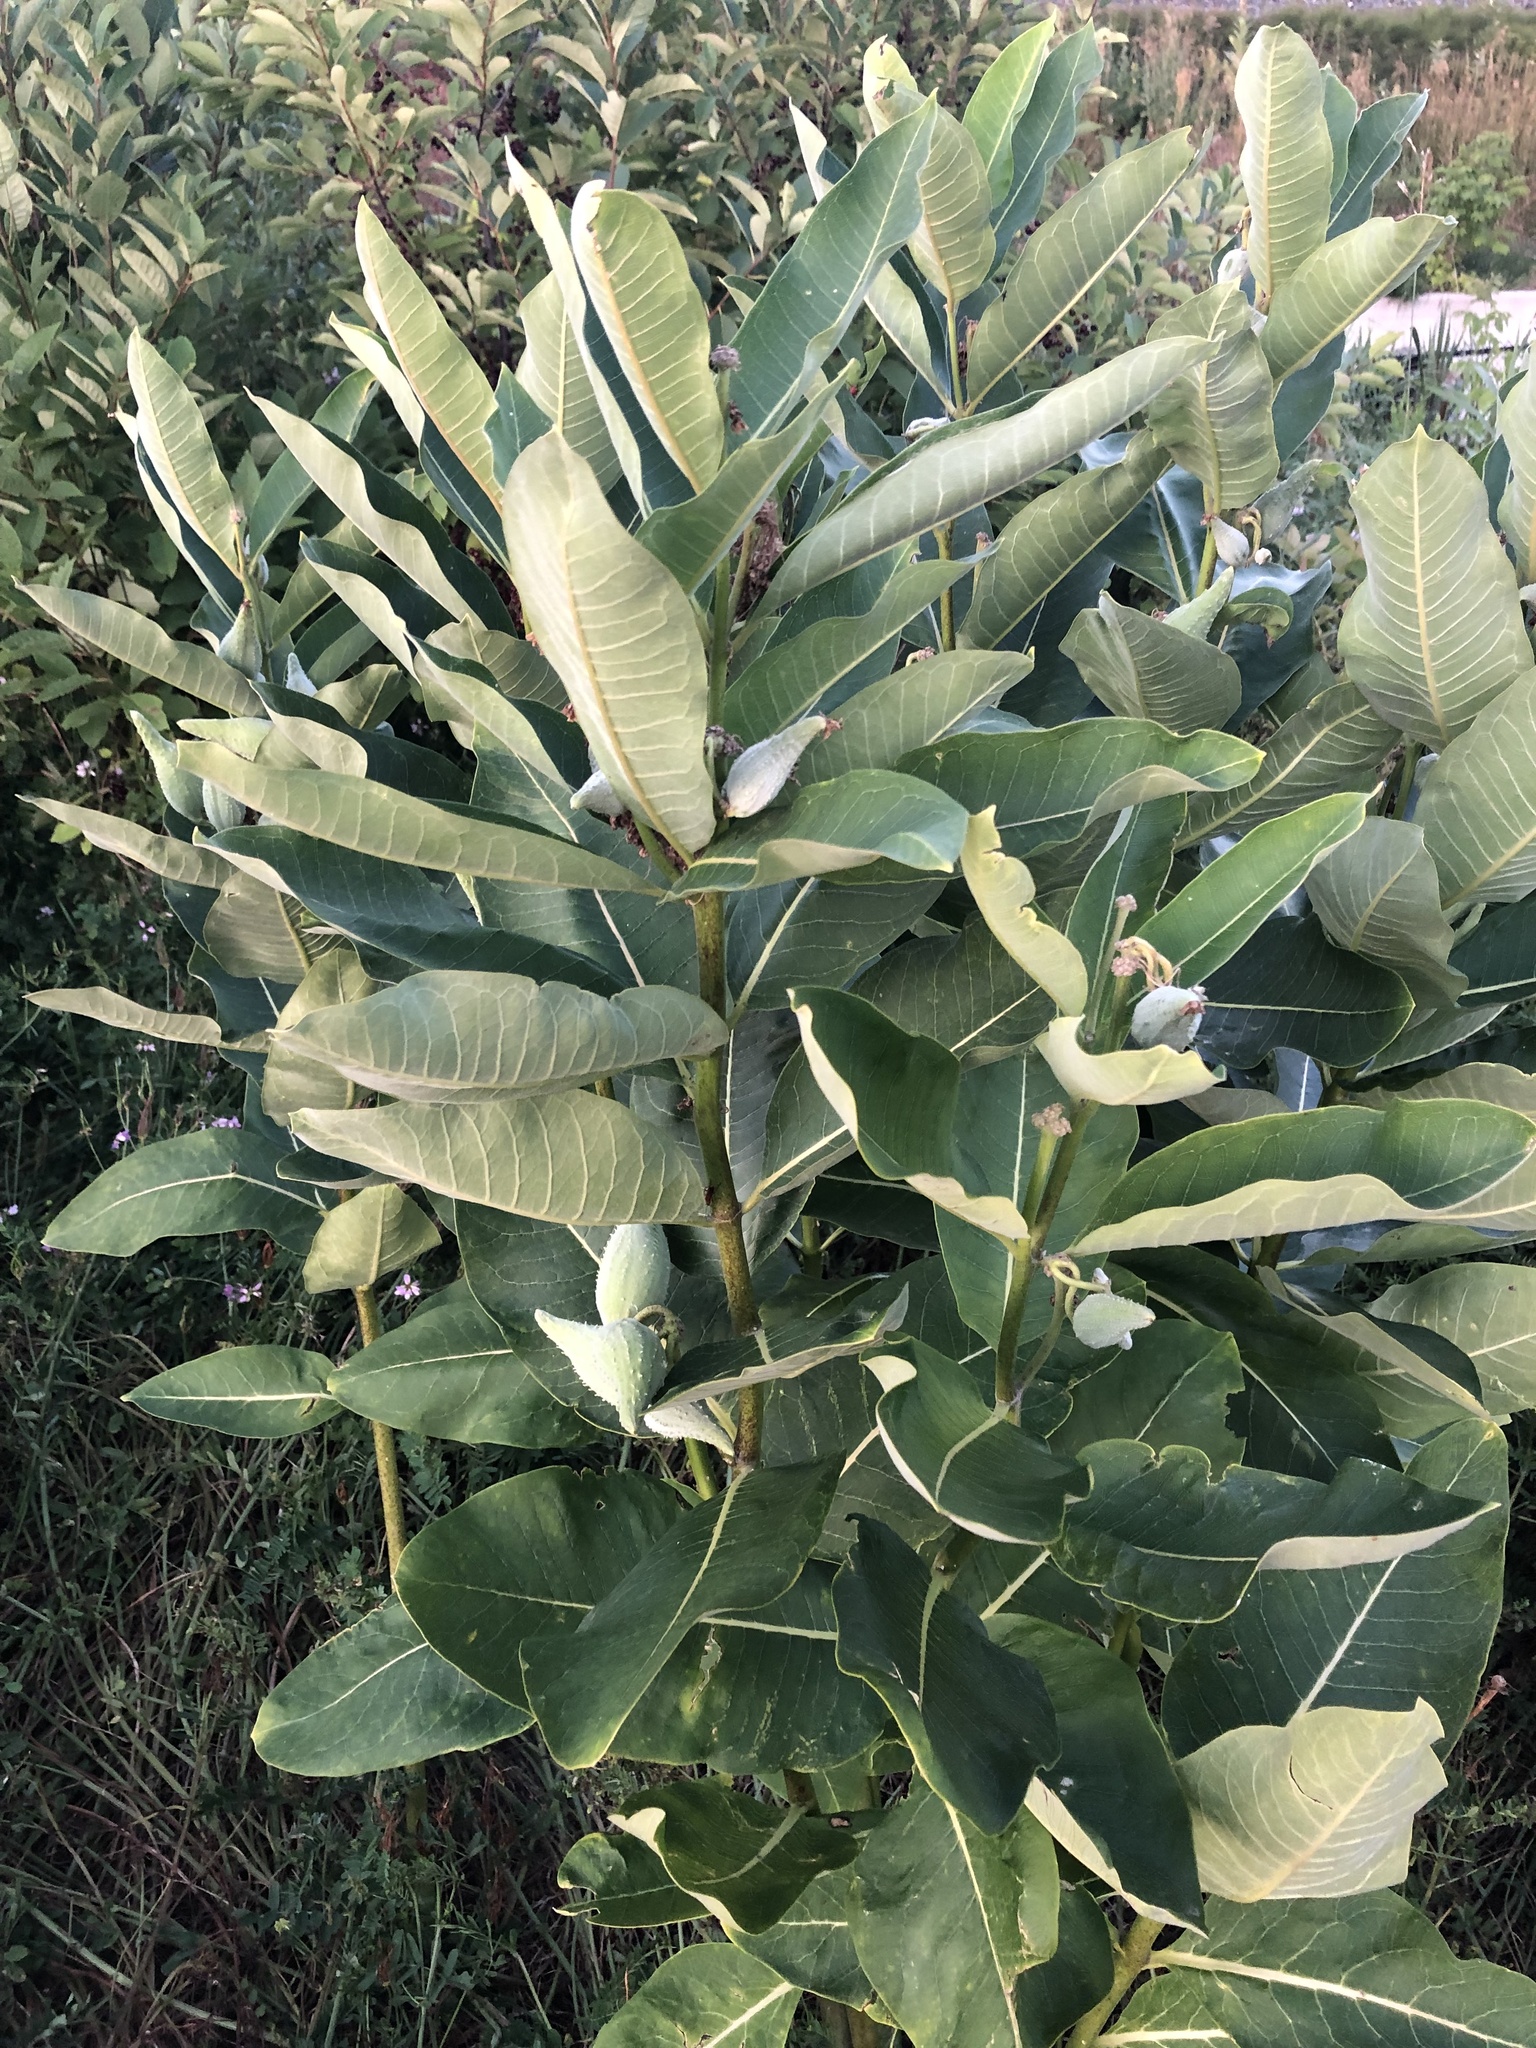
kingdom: Plantae
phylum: Tracheophyta
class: Magnoliopsida
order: Gentianales
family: Apocynaceae
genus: Asclepias
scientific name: Asclepias syriaca
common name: Common milkweed
